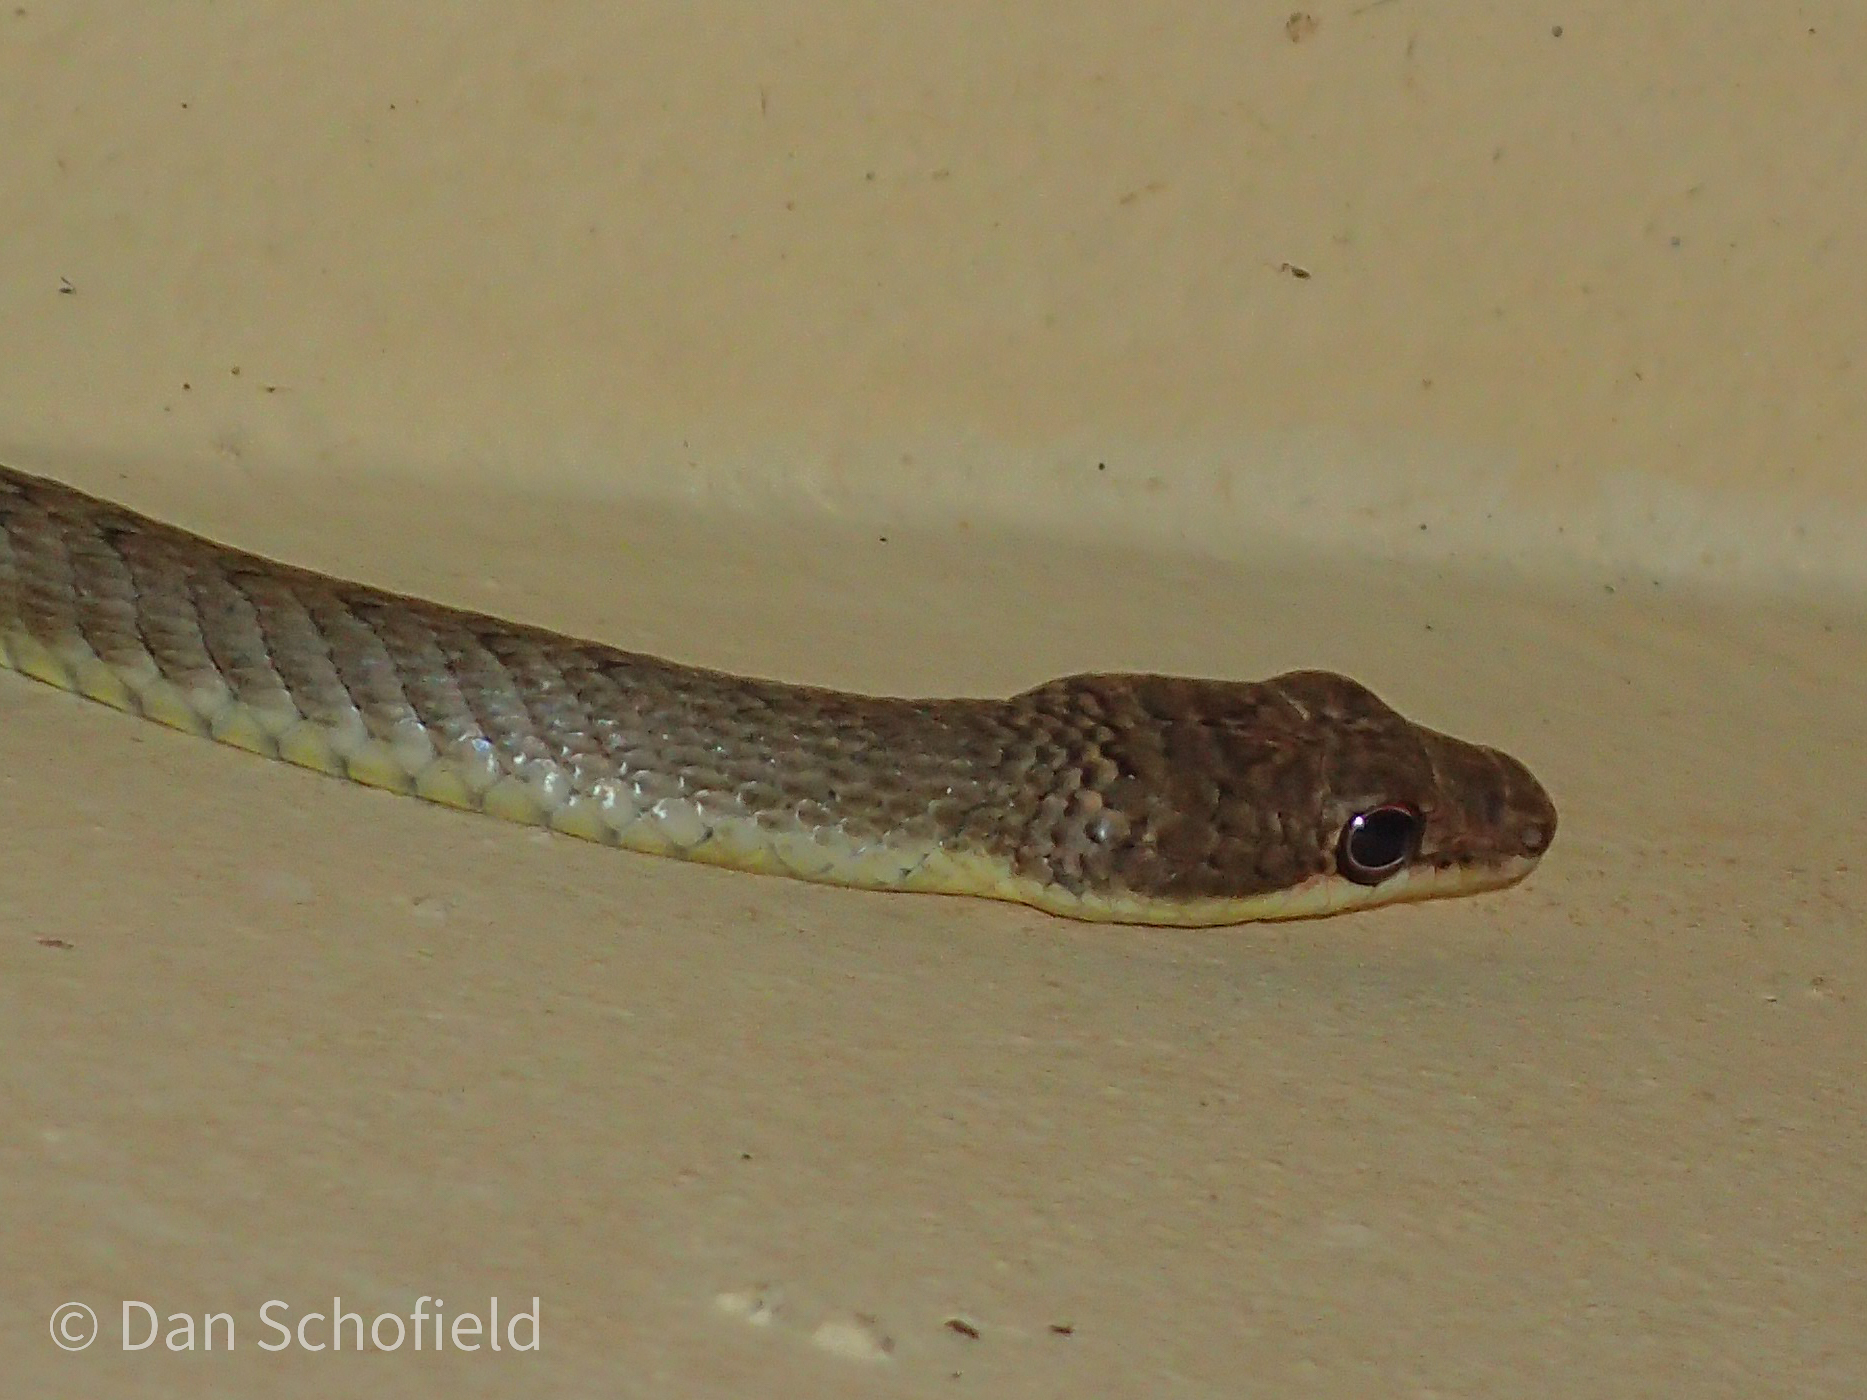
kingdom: Animalia
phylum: Chordata
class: Squamata
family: Colubridae
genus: Chrysopelea
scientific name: Chrysopelea paradisi
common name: Paradise tree snake
